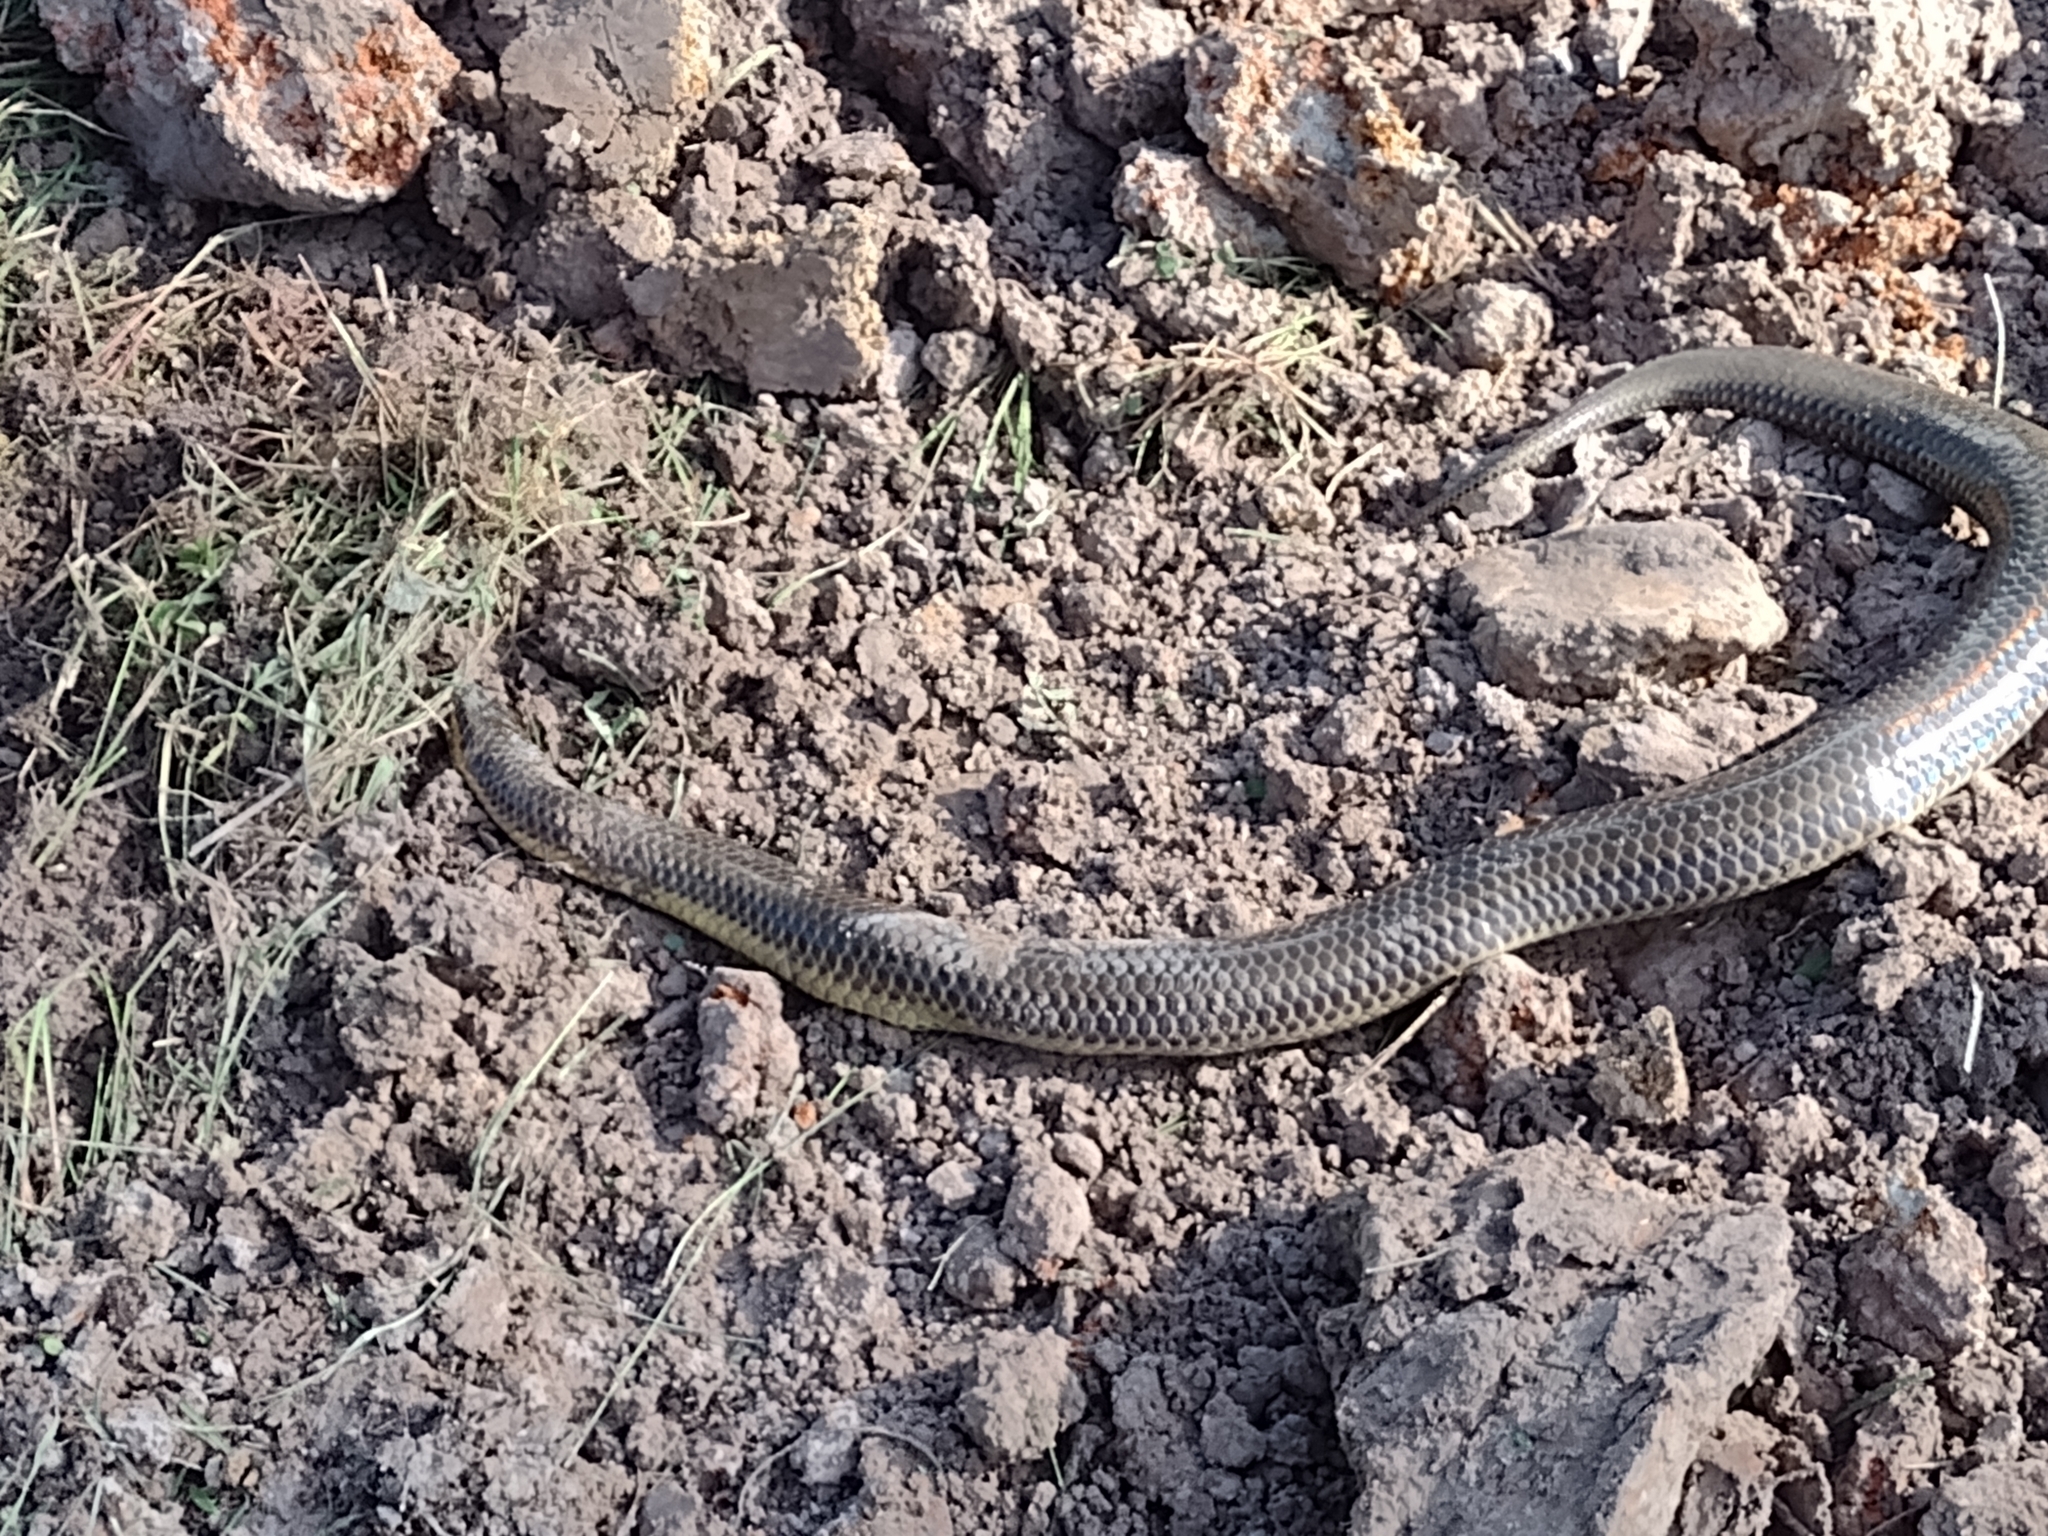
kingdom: Animalia
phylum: Chordata
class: Squamata
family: Colubridae
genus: Pseudoeryx
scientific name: Pseudoeryx plicatilis
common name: South american pond snake
